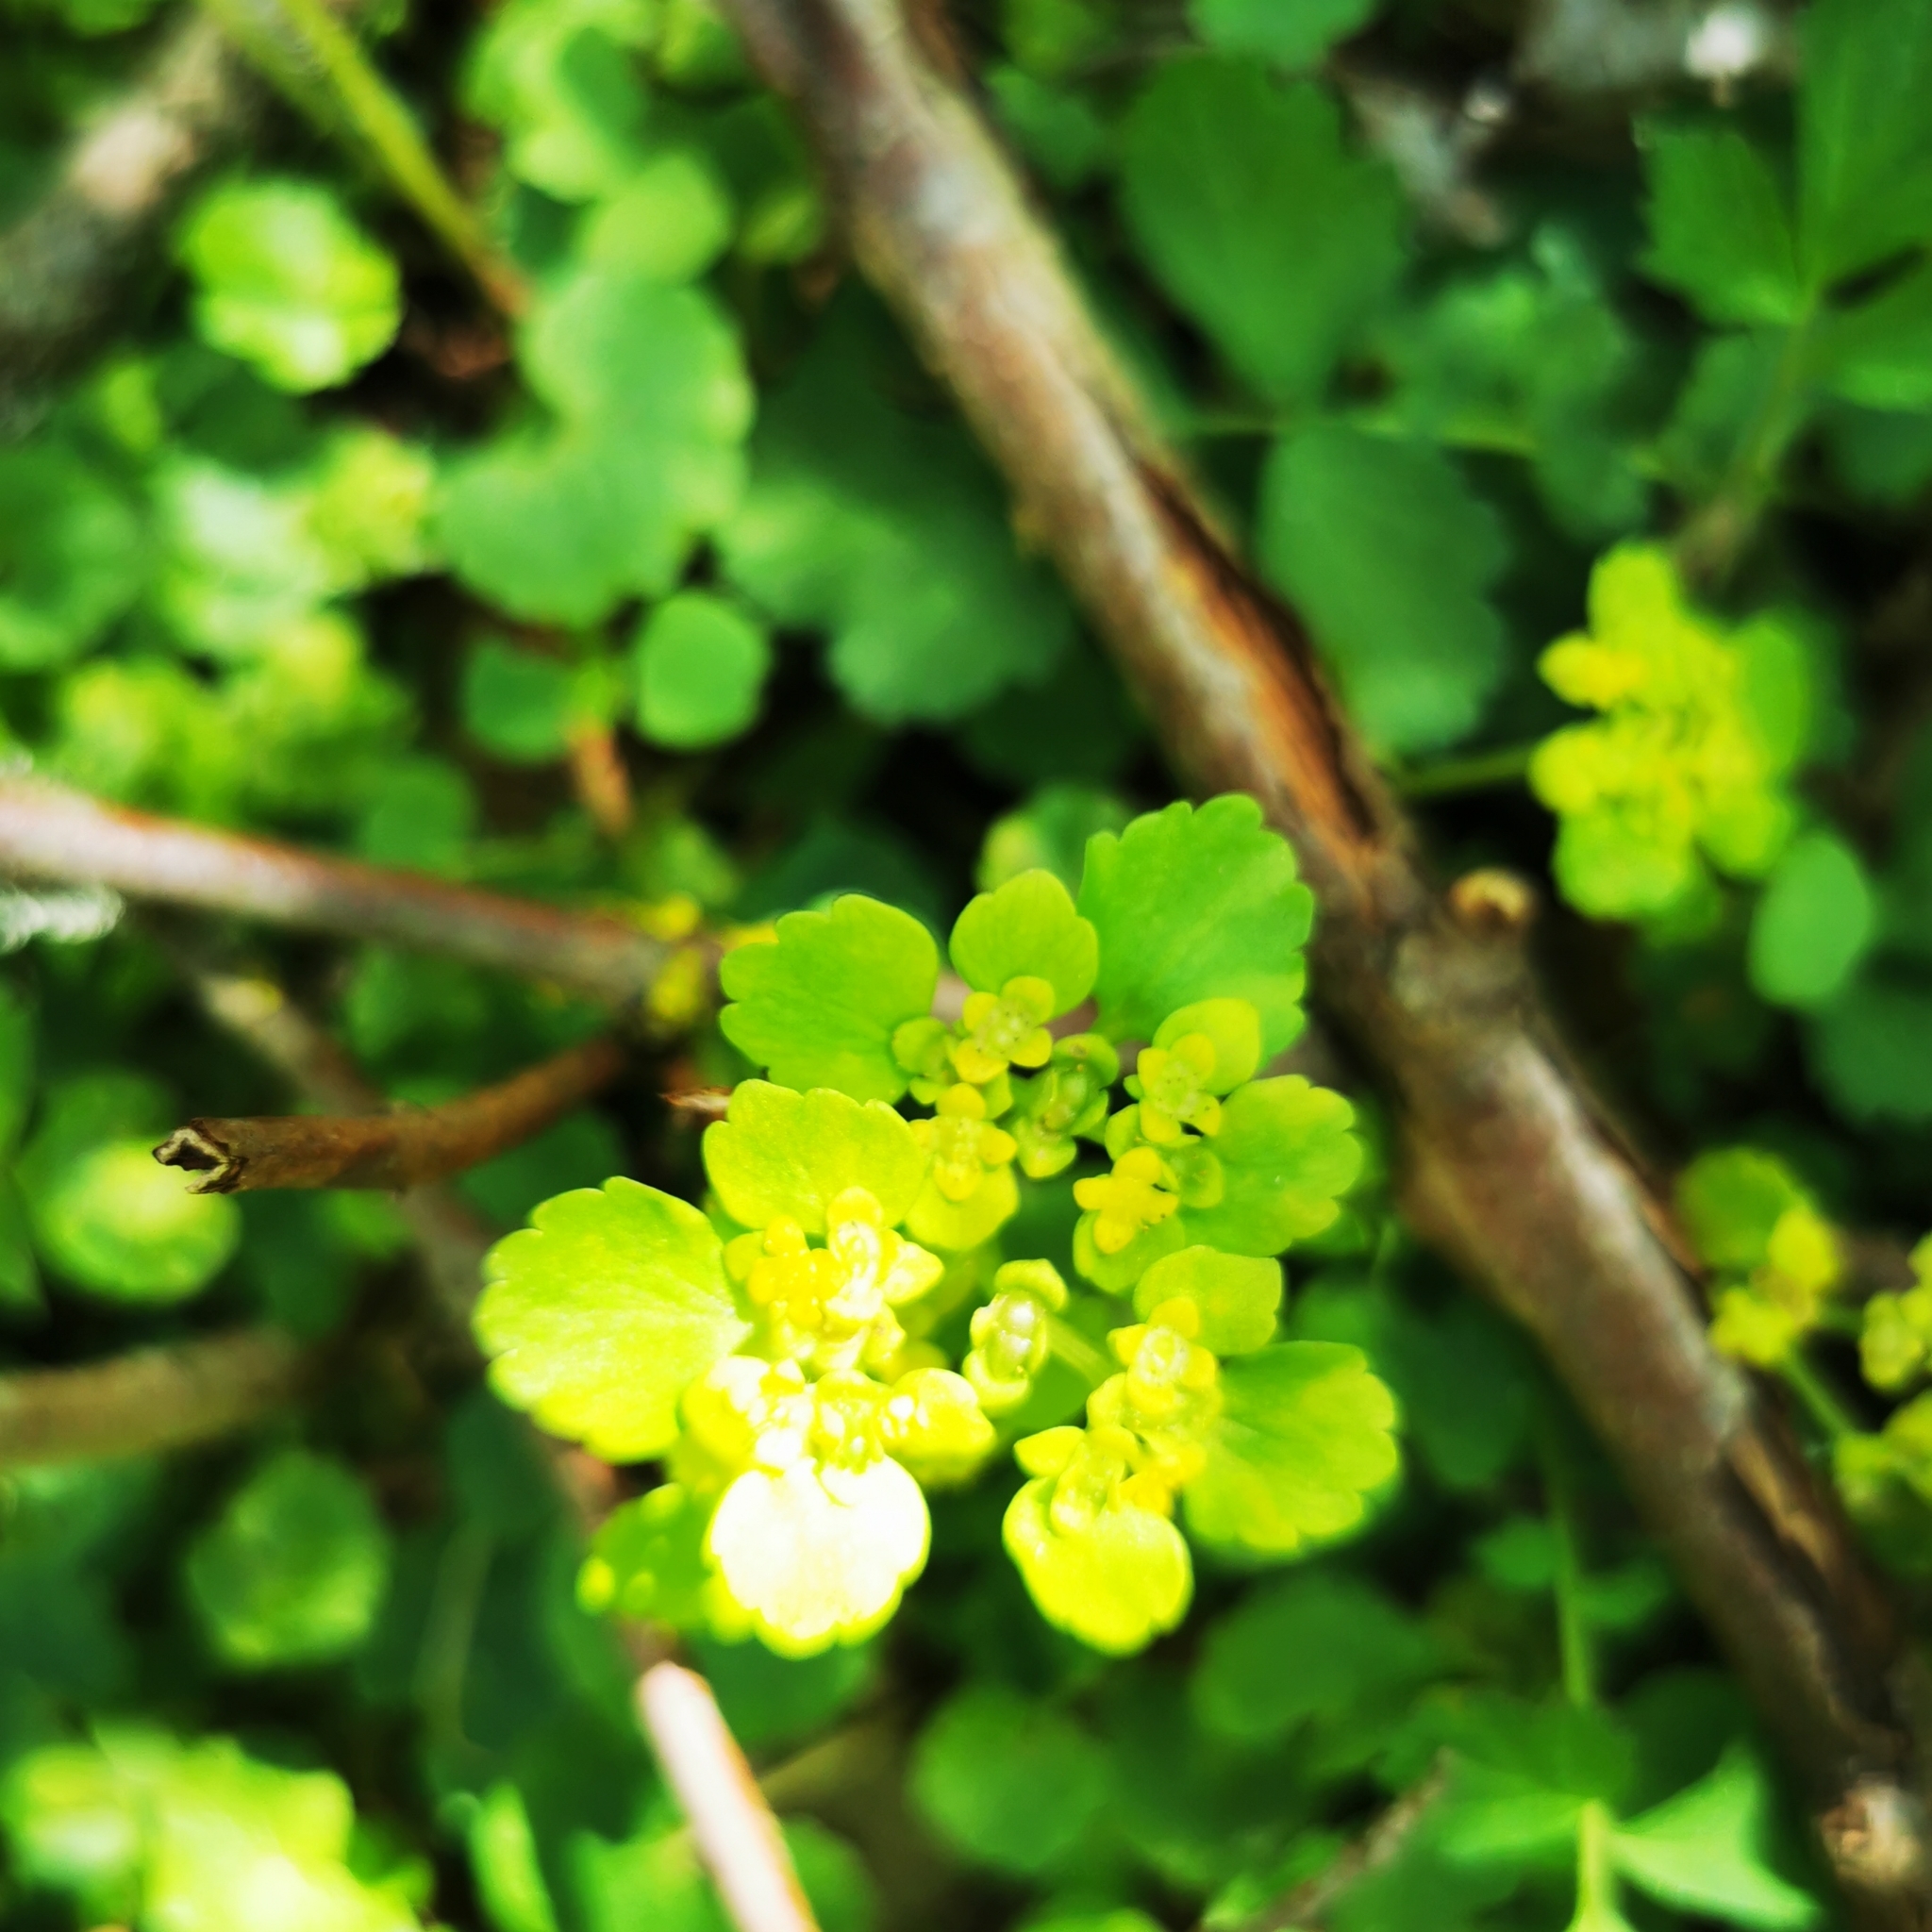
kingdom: Plantae
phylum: Tracheophyta
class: Magnoliopsida
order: Saxifragales
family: Saxifragaceae
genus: Chrysosplenium
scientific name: Chrysosplenium alternifolium
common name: Alternate-leaved golden-saxifrage
